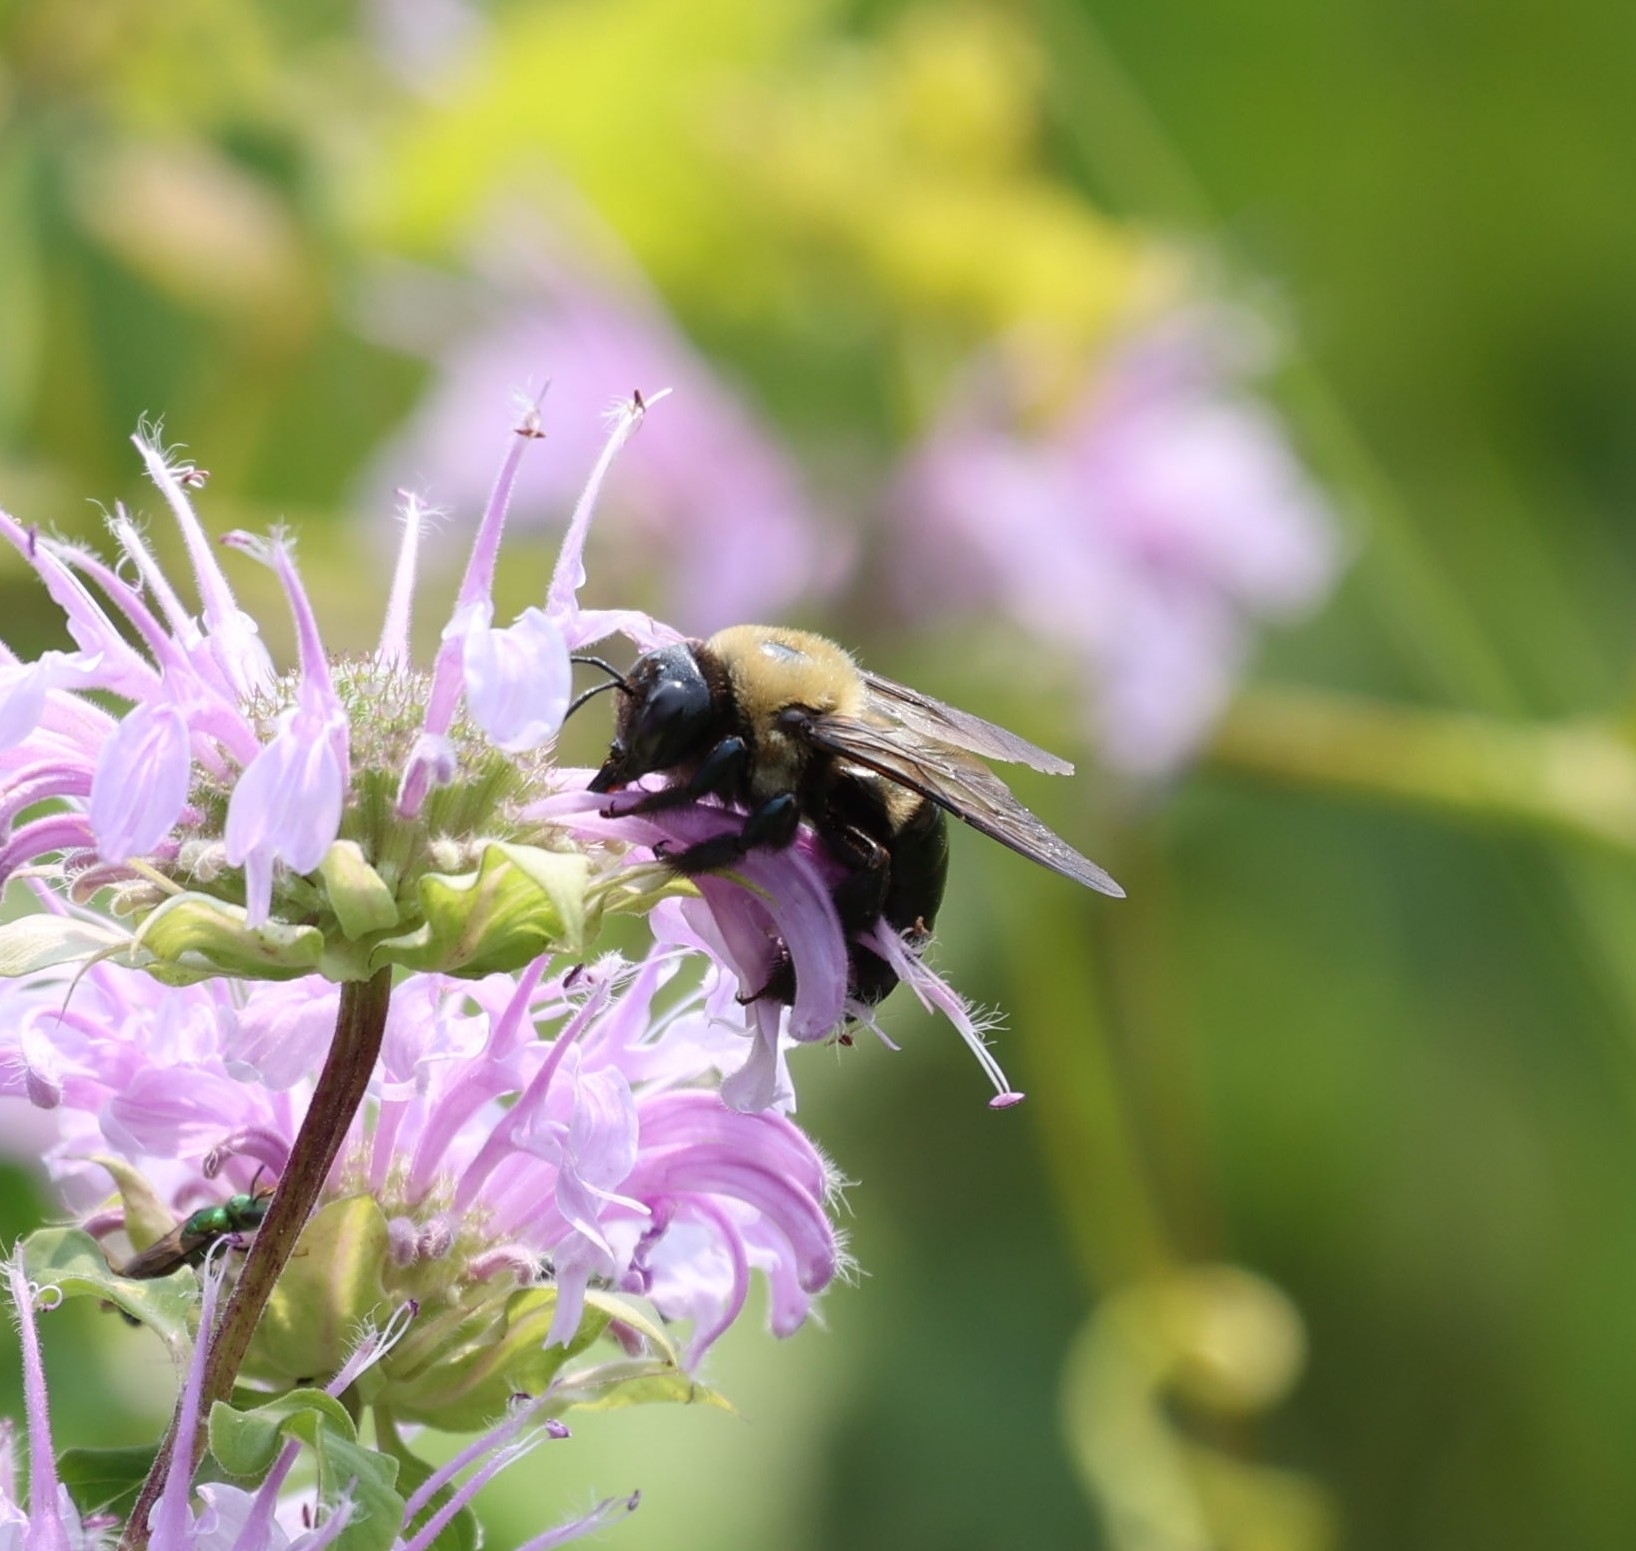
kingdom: Animalia
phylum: Arthropoda
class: Insecta
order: Hymenoptera
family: Apidae
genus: Xylocopa
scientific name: Xylocopa virginica
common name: Carpenter bee
